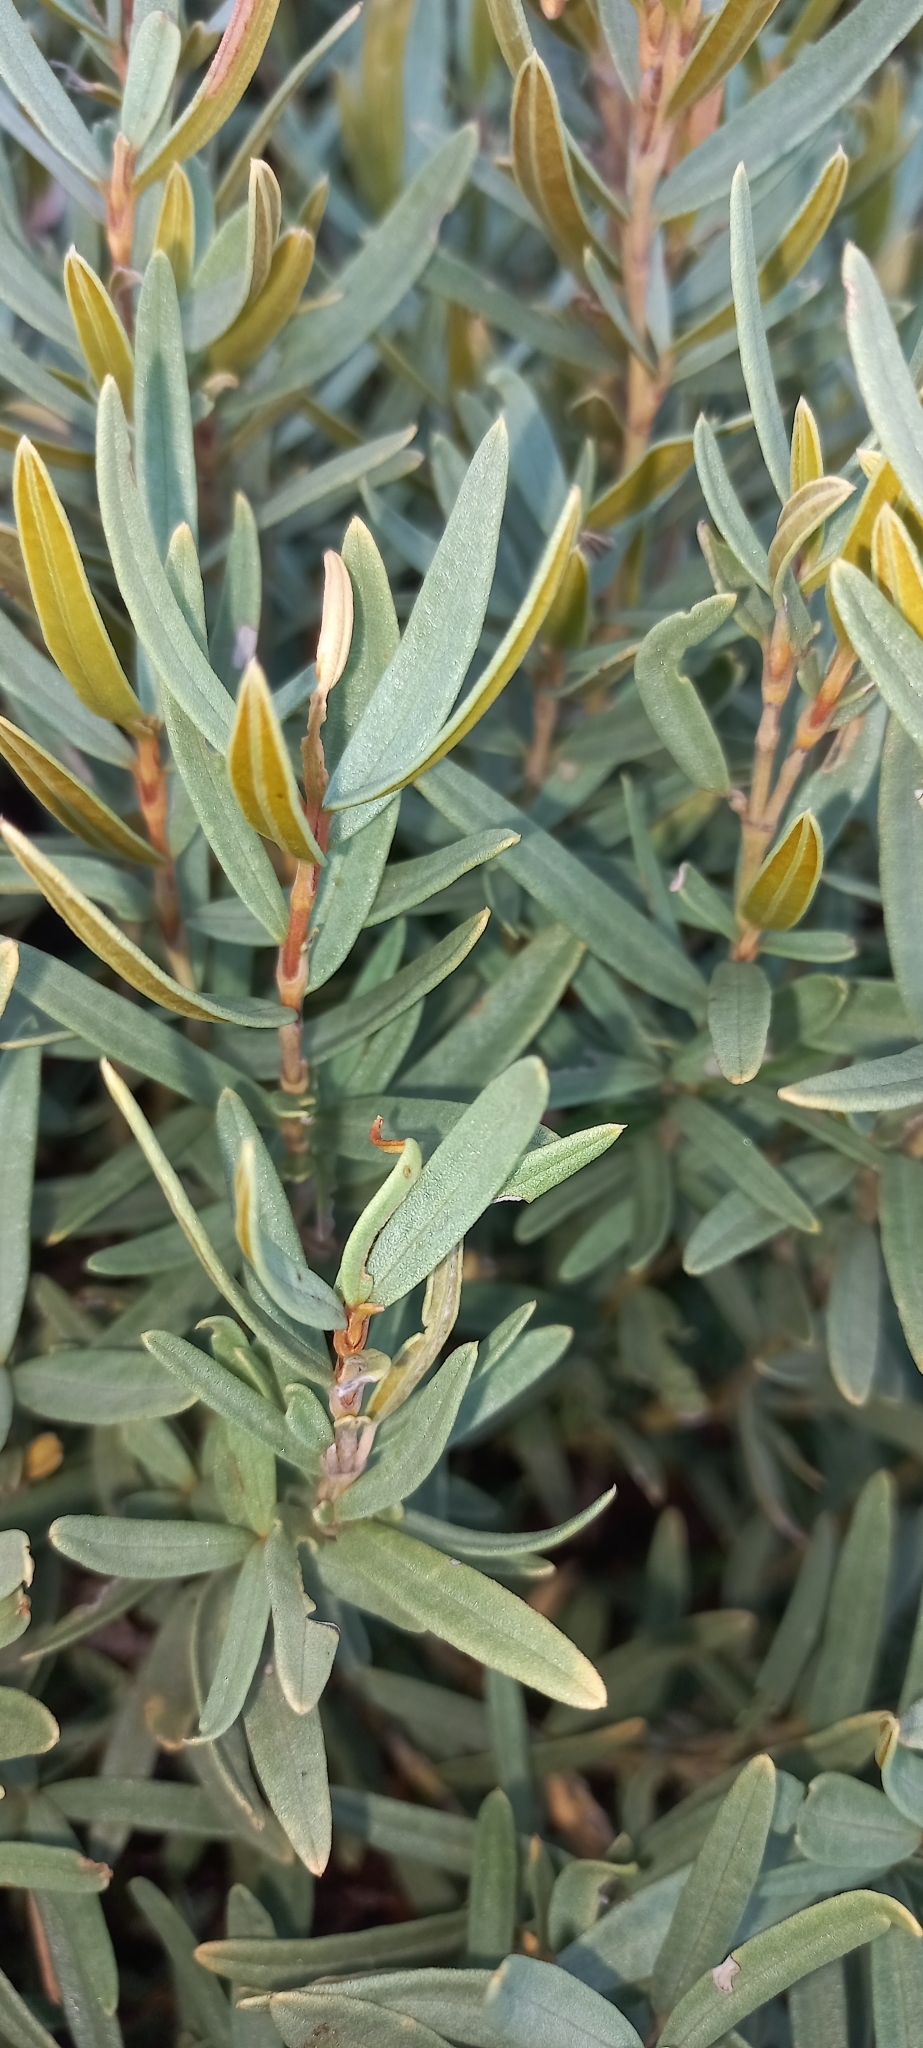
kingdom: Plantae
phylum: Tracheophyta
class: Magnoliopsida
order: Cornales
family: Grubbiaceae
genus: Grubbia
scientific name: Grubbia tomentosa
